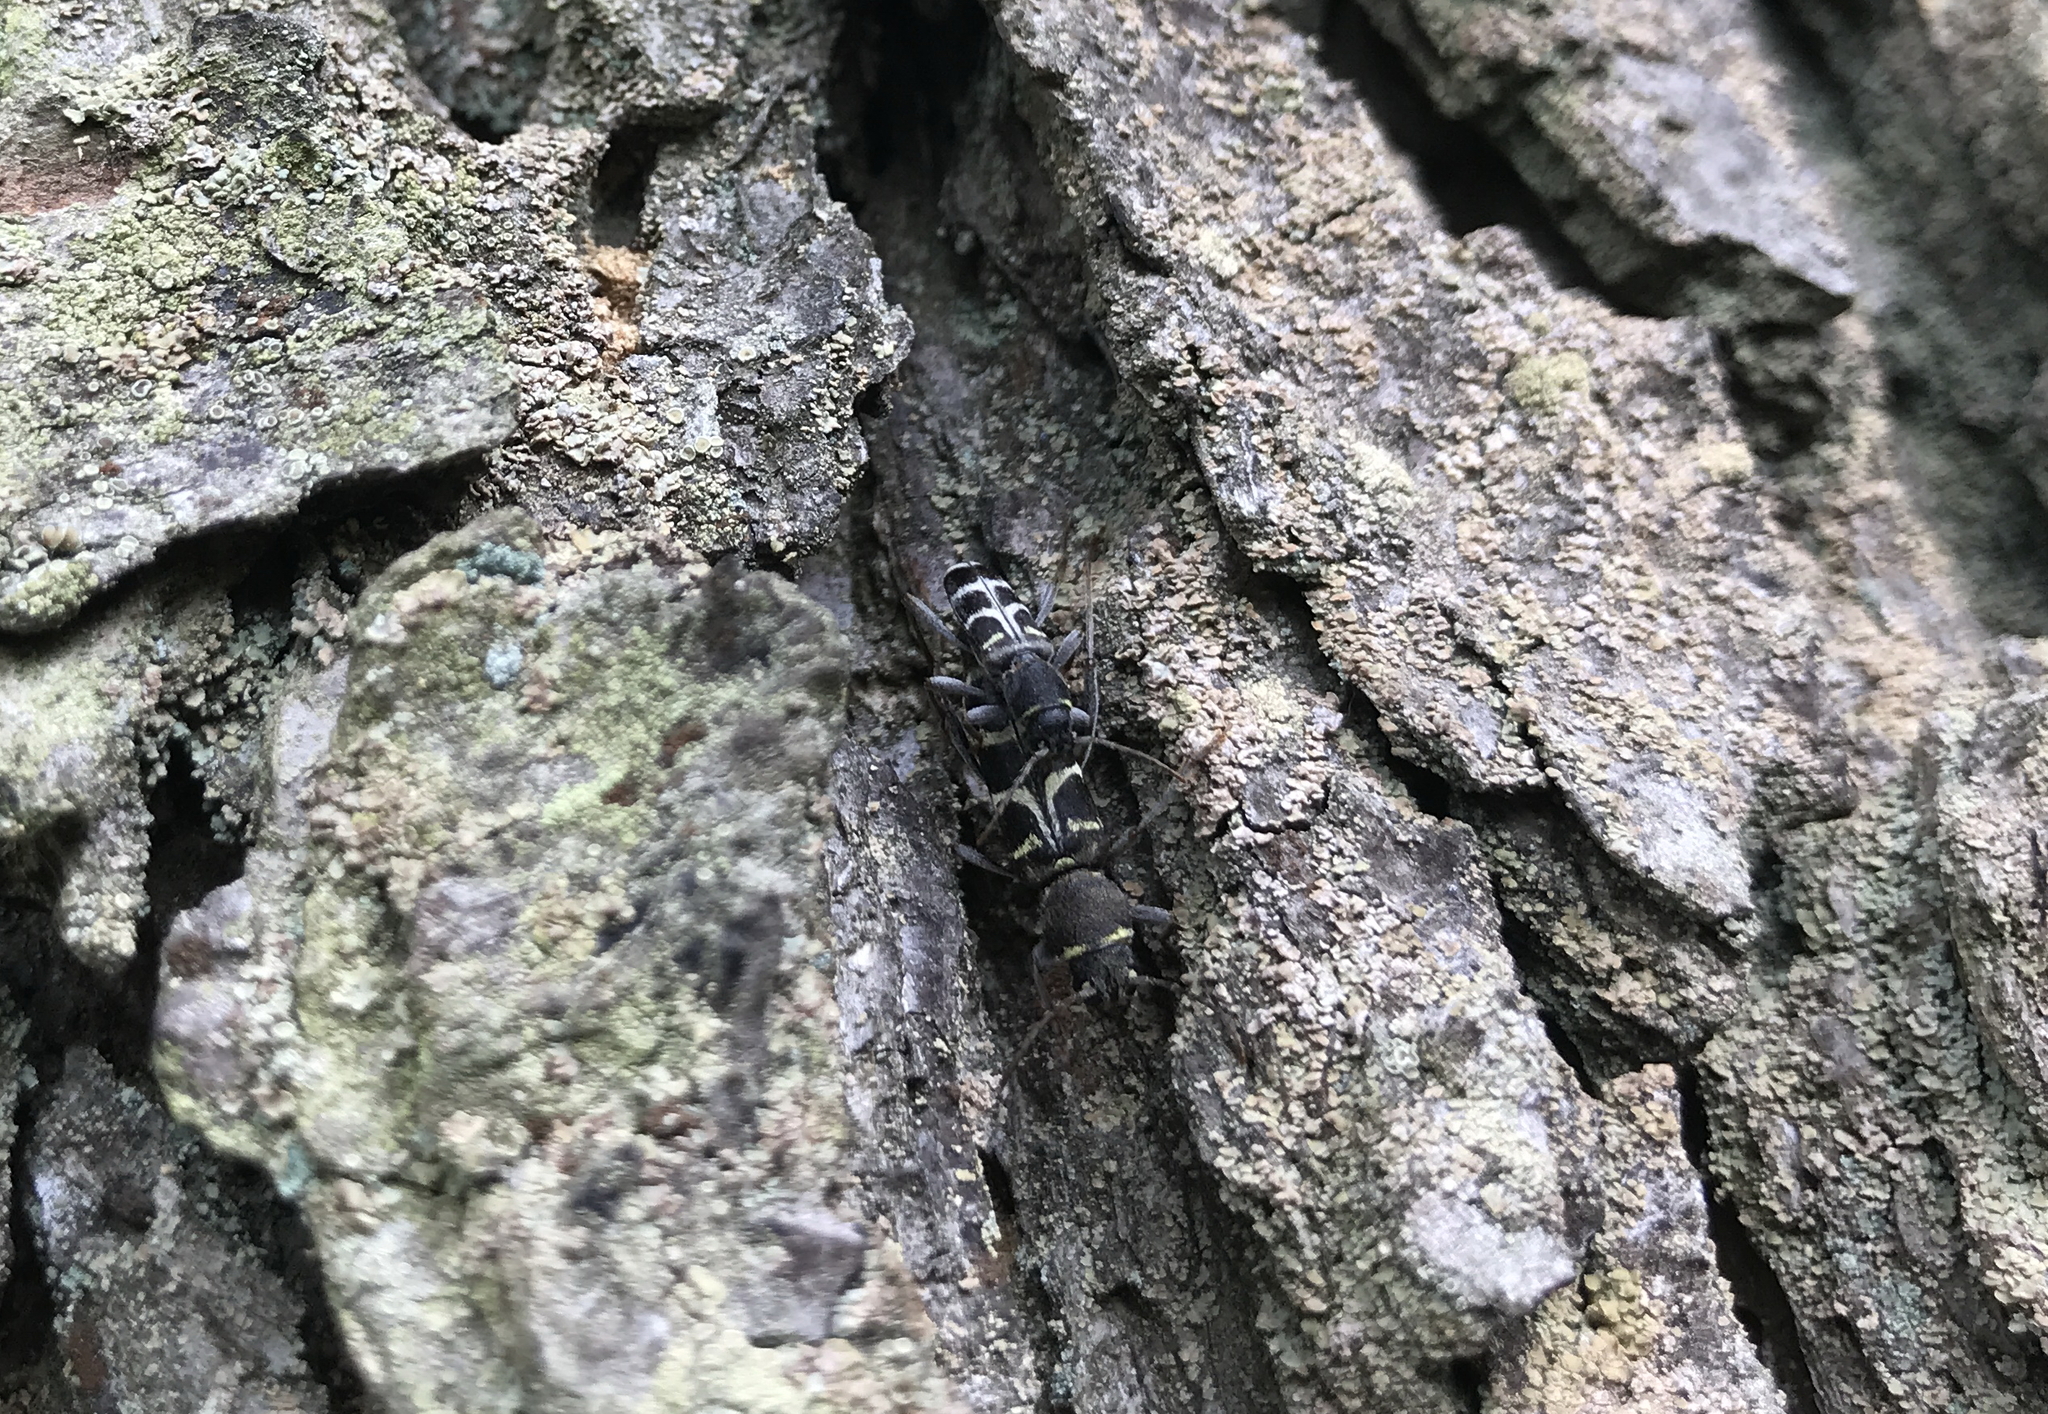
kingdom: Animalia
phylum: Arthropoda
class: Insecta
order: Coleoptera
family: Cerambycidae
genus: Xylotrechus
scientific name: Xylotrechus ibex
